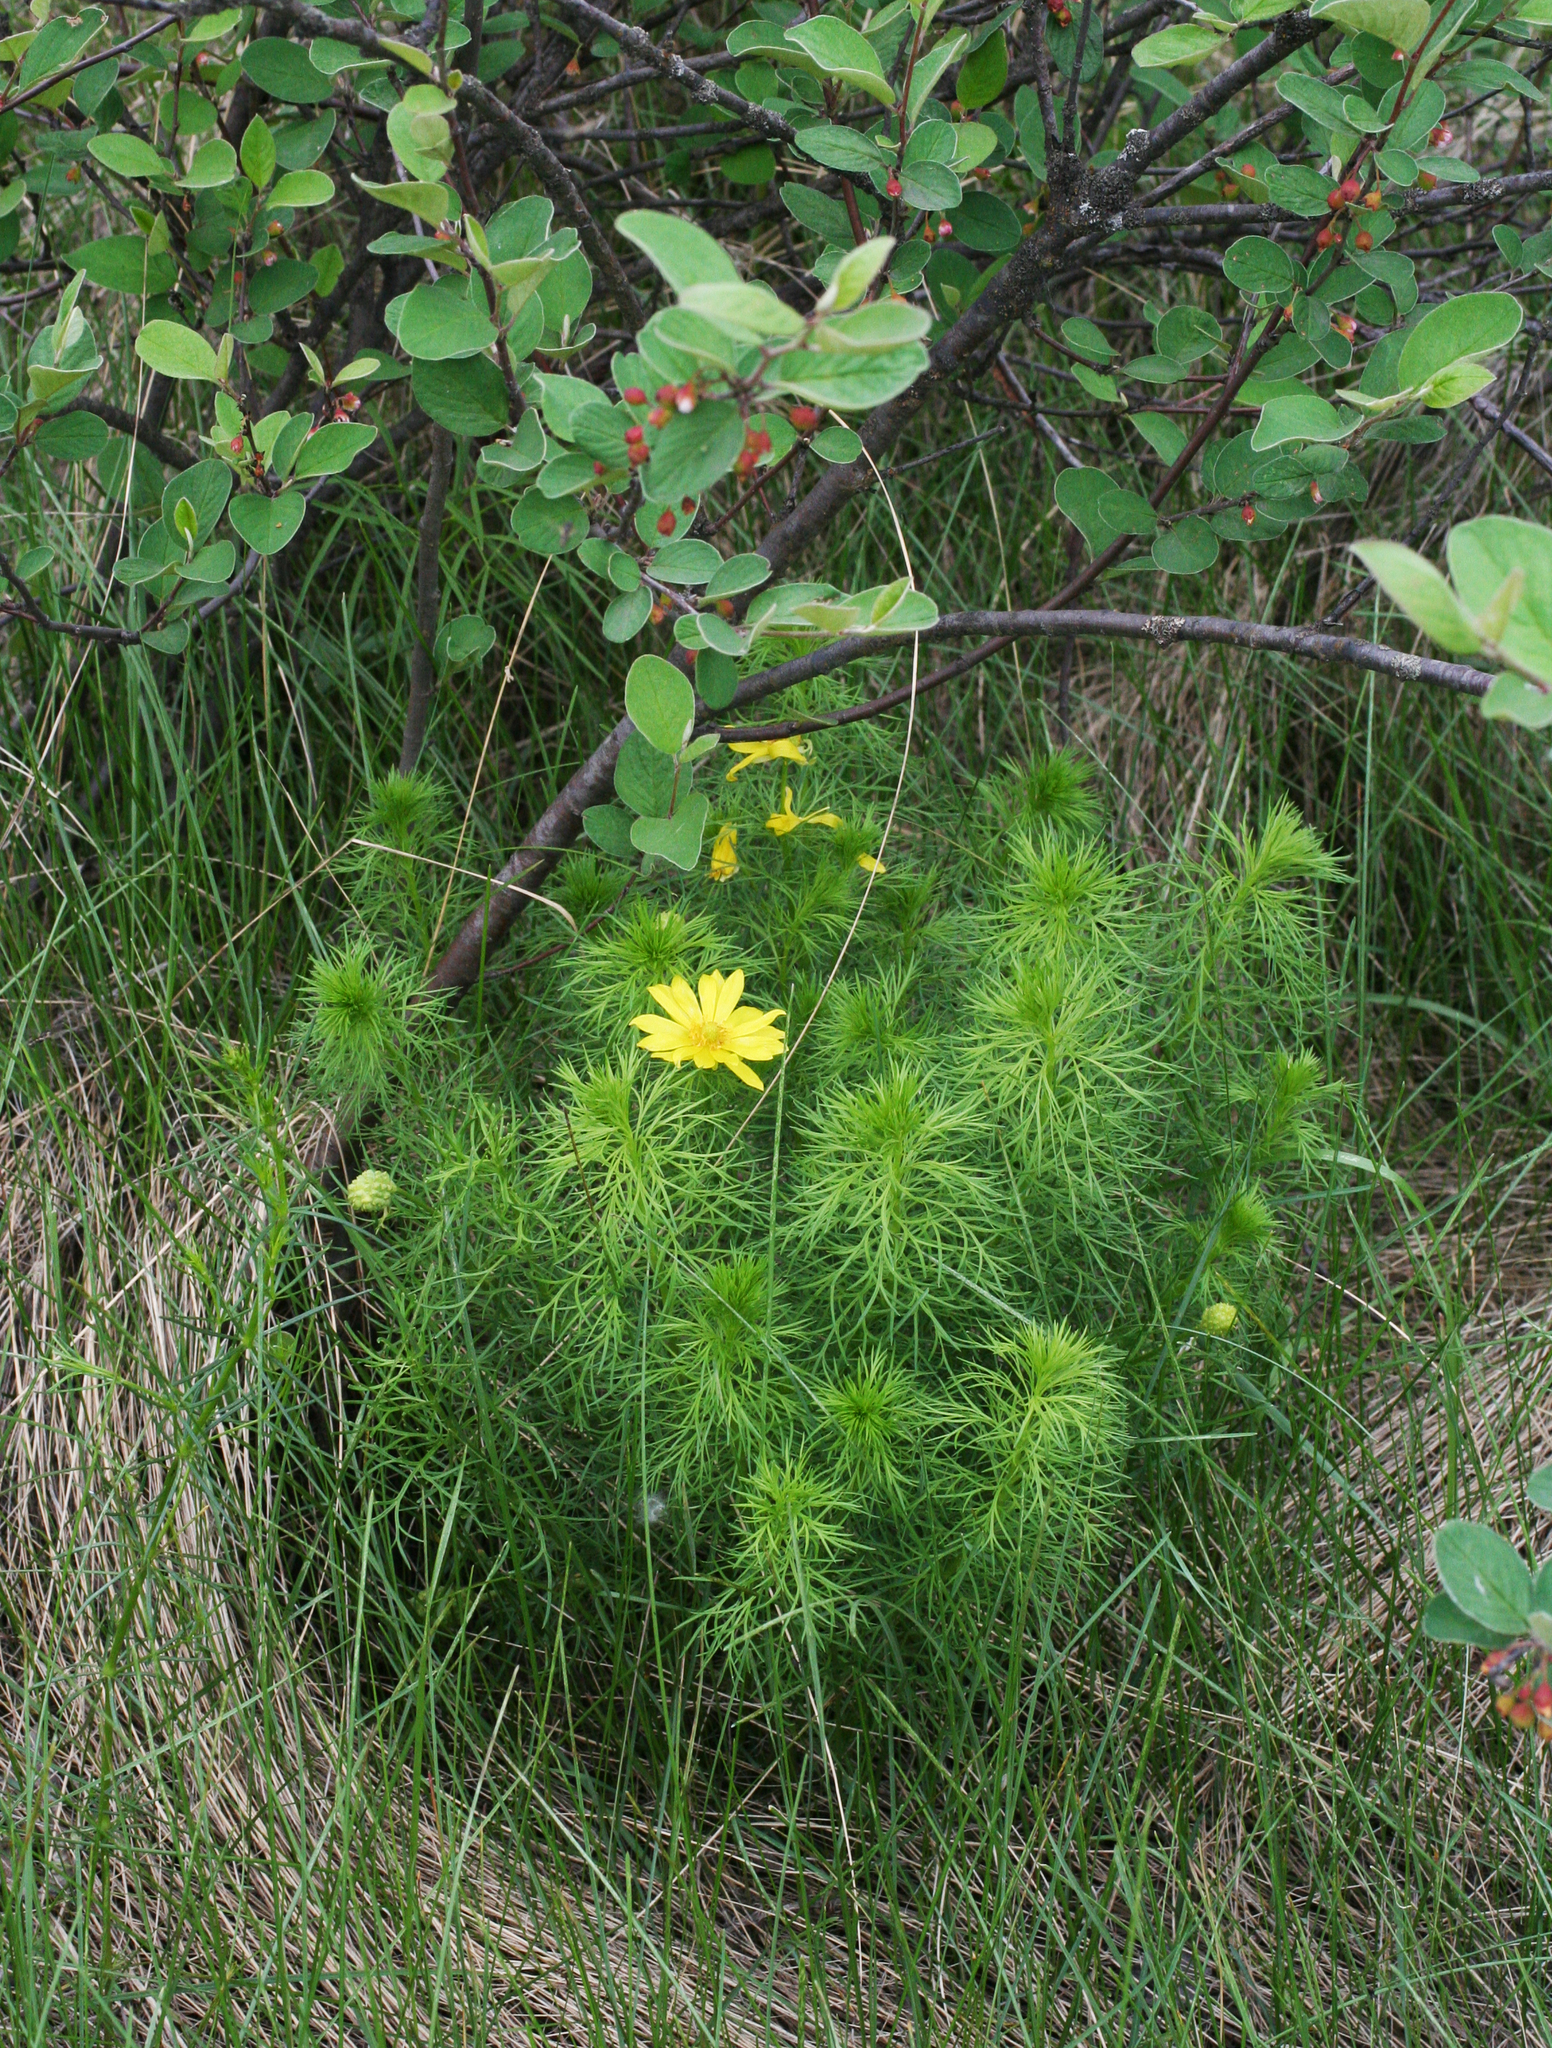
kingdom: Plantae
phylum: Tracheophyta
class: Magnoliopsida
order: Ranunculales
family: Ranunculaceae
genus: Adonis
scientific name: Adonis vernalis
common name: Yellow pheasants-eye
